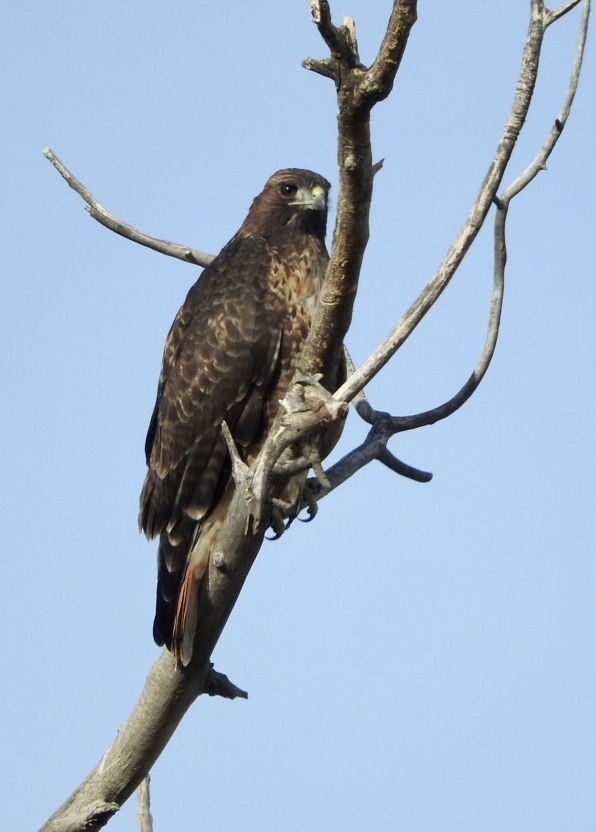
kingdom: Animalia
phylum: Chordata
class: Aves
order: Accipitriformes
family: Accipitridae
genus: Buteo
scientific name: Buteo jamaicensis
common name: Red-tailed hawk
